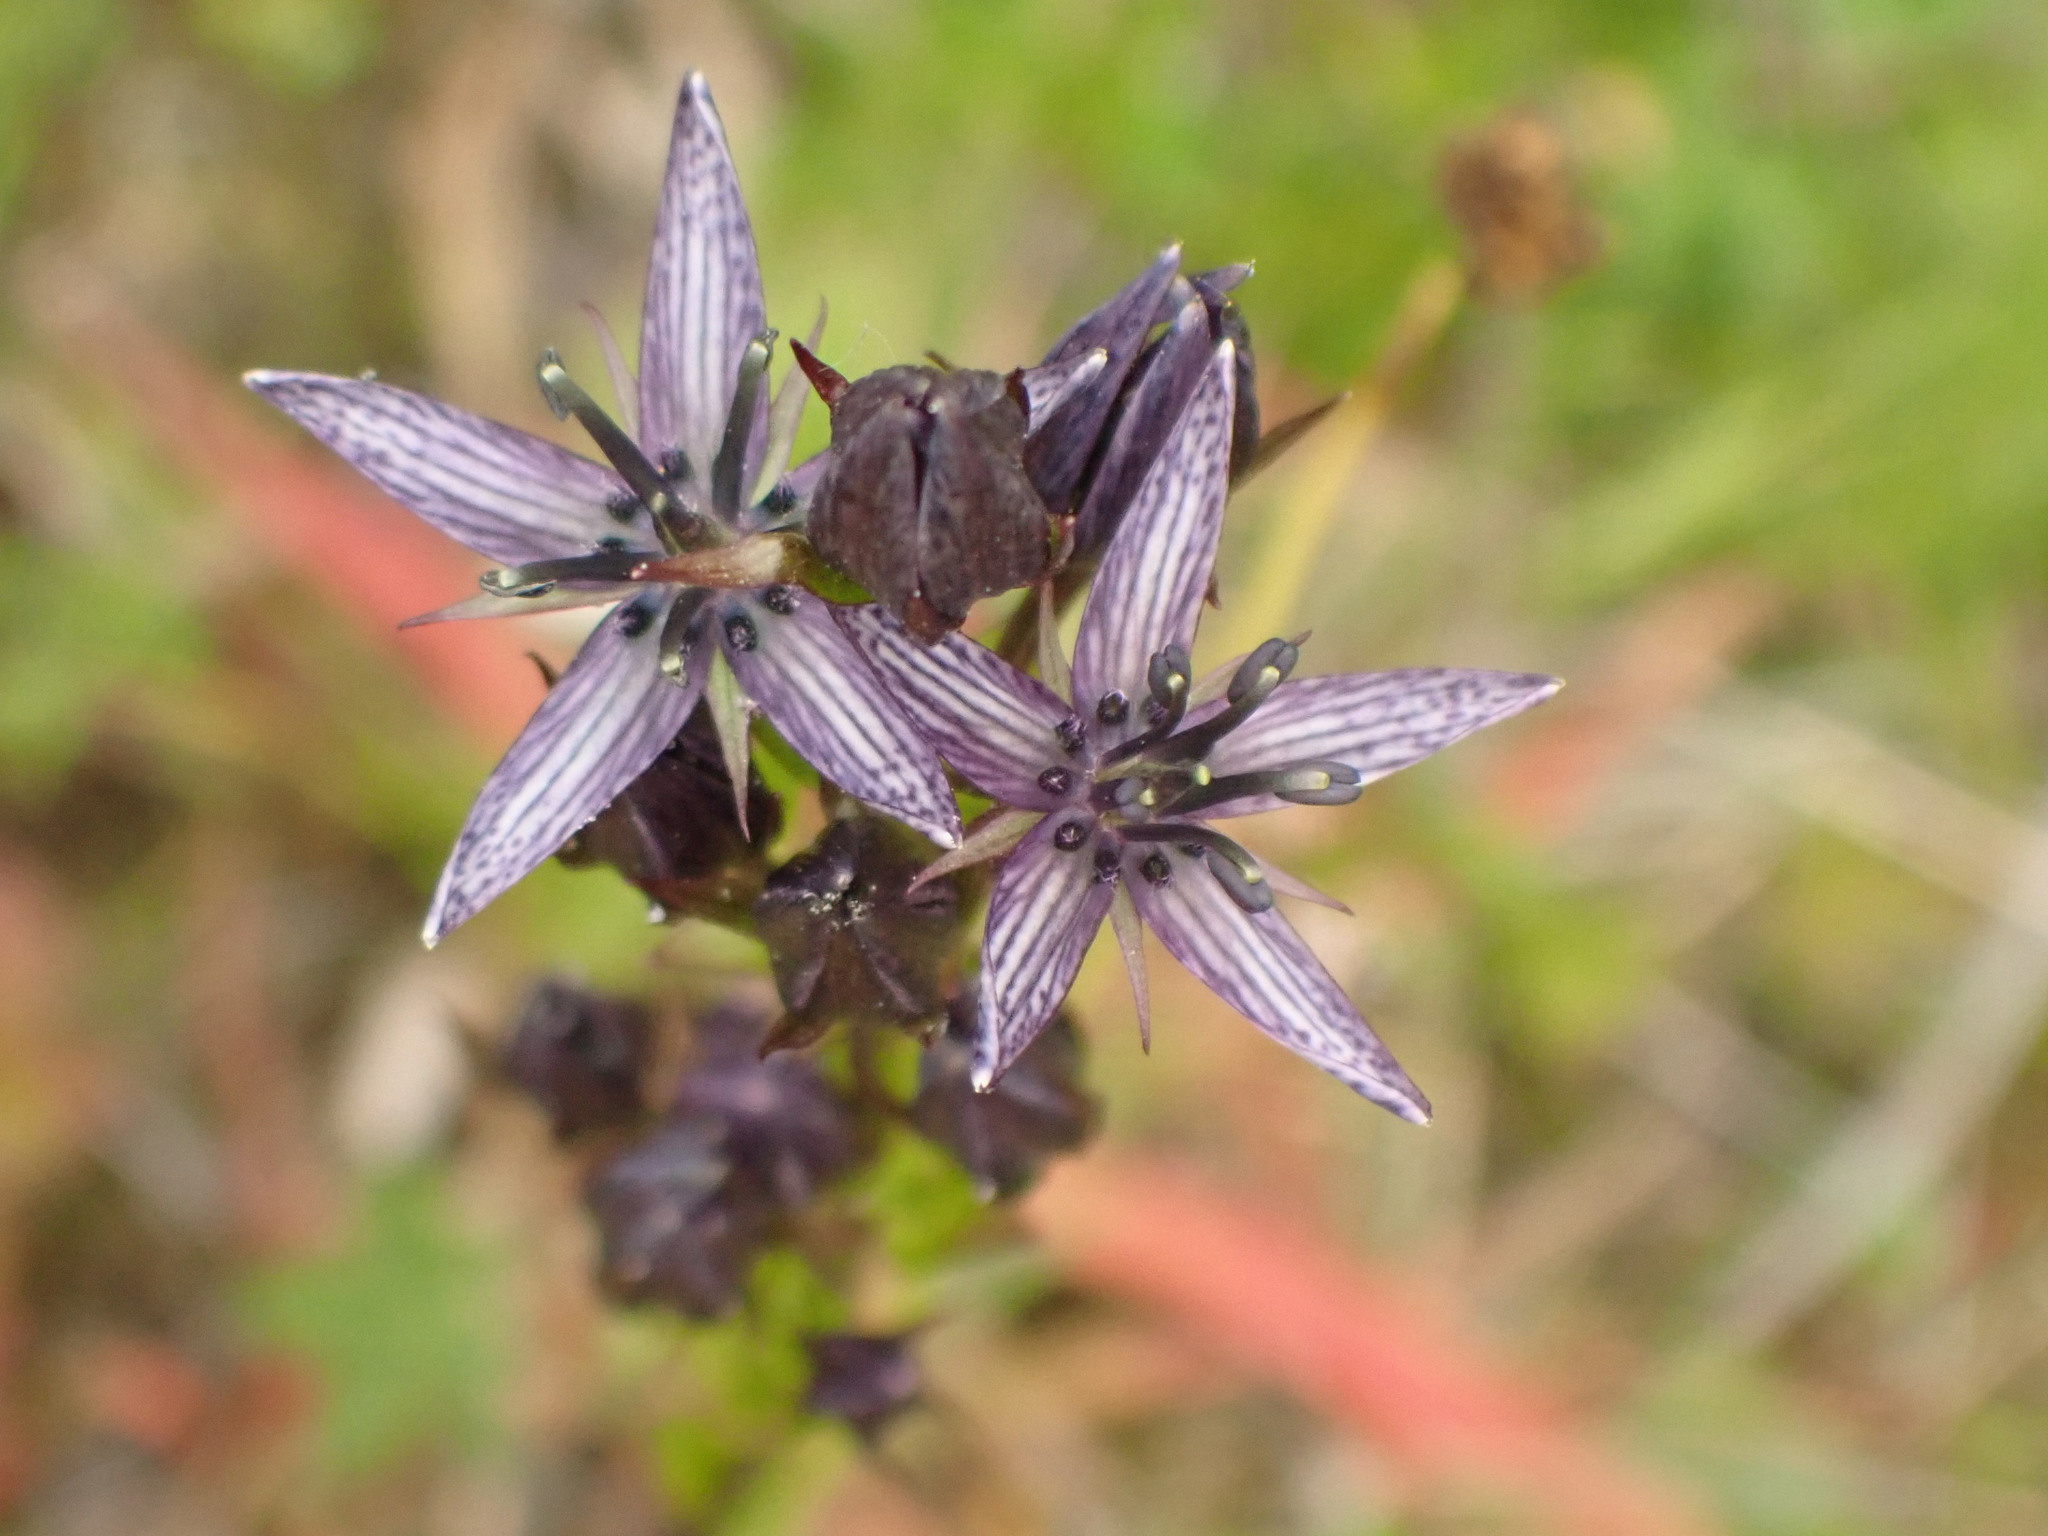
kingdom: Plantae
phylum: Tracheophyta
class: Magnoliopsida
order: Gentianales
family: Gentianaceae
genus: Swertia
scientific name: Swertia perennis
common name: Alpine bog swertia
